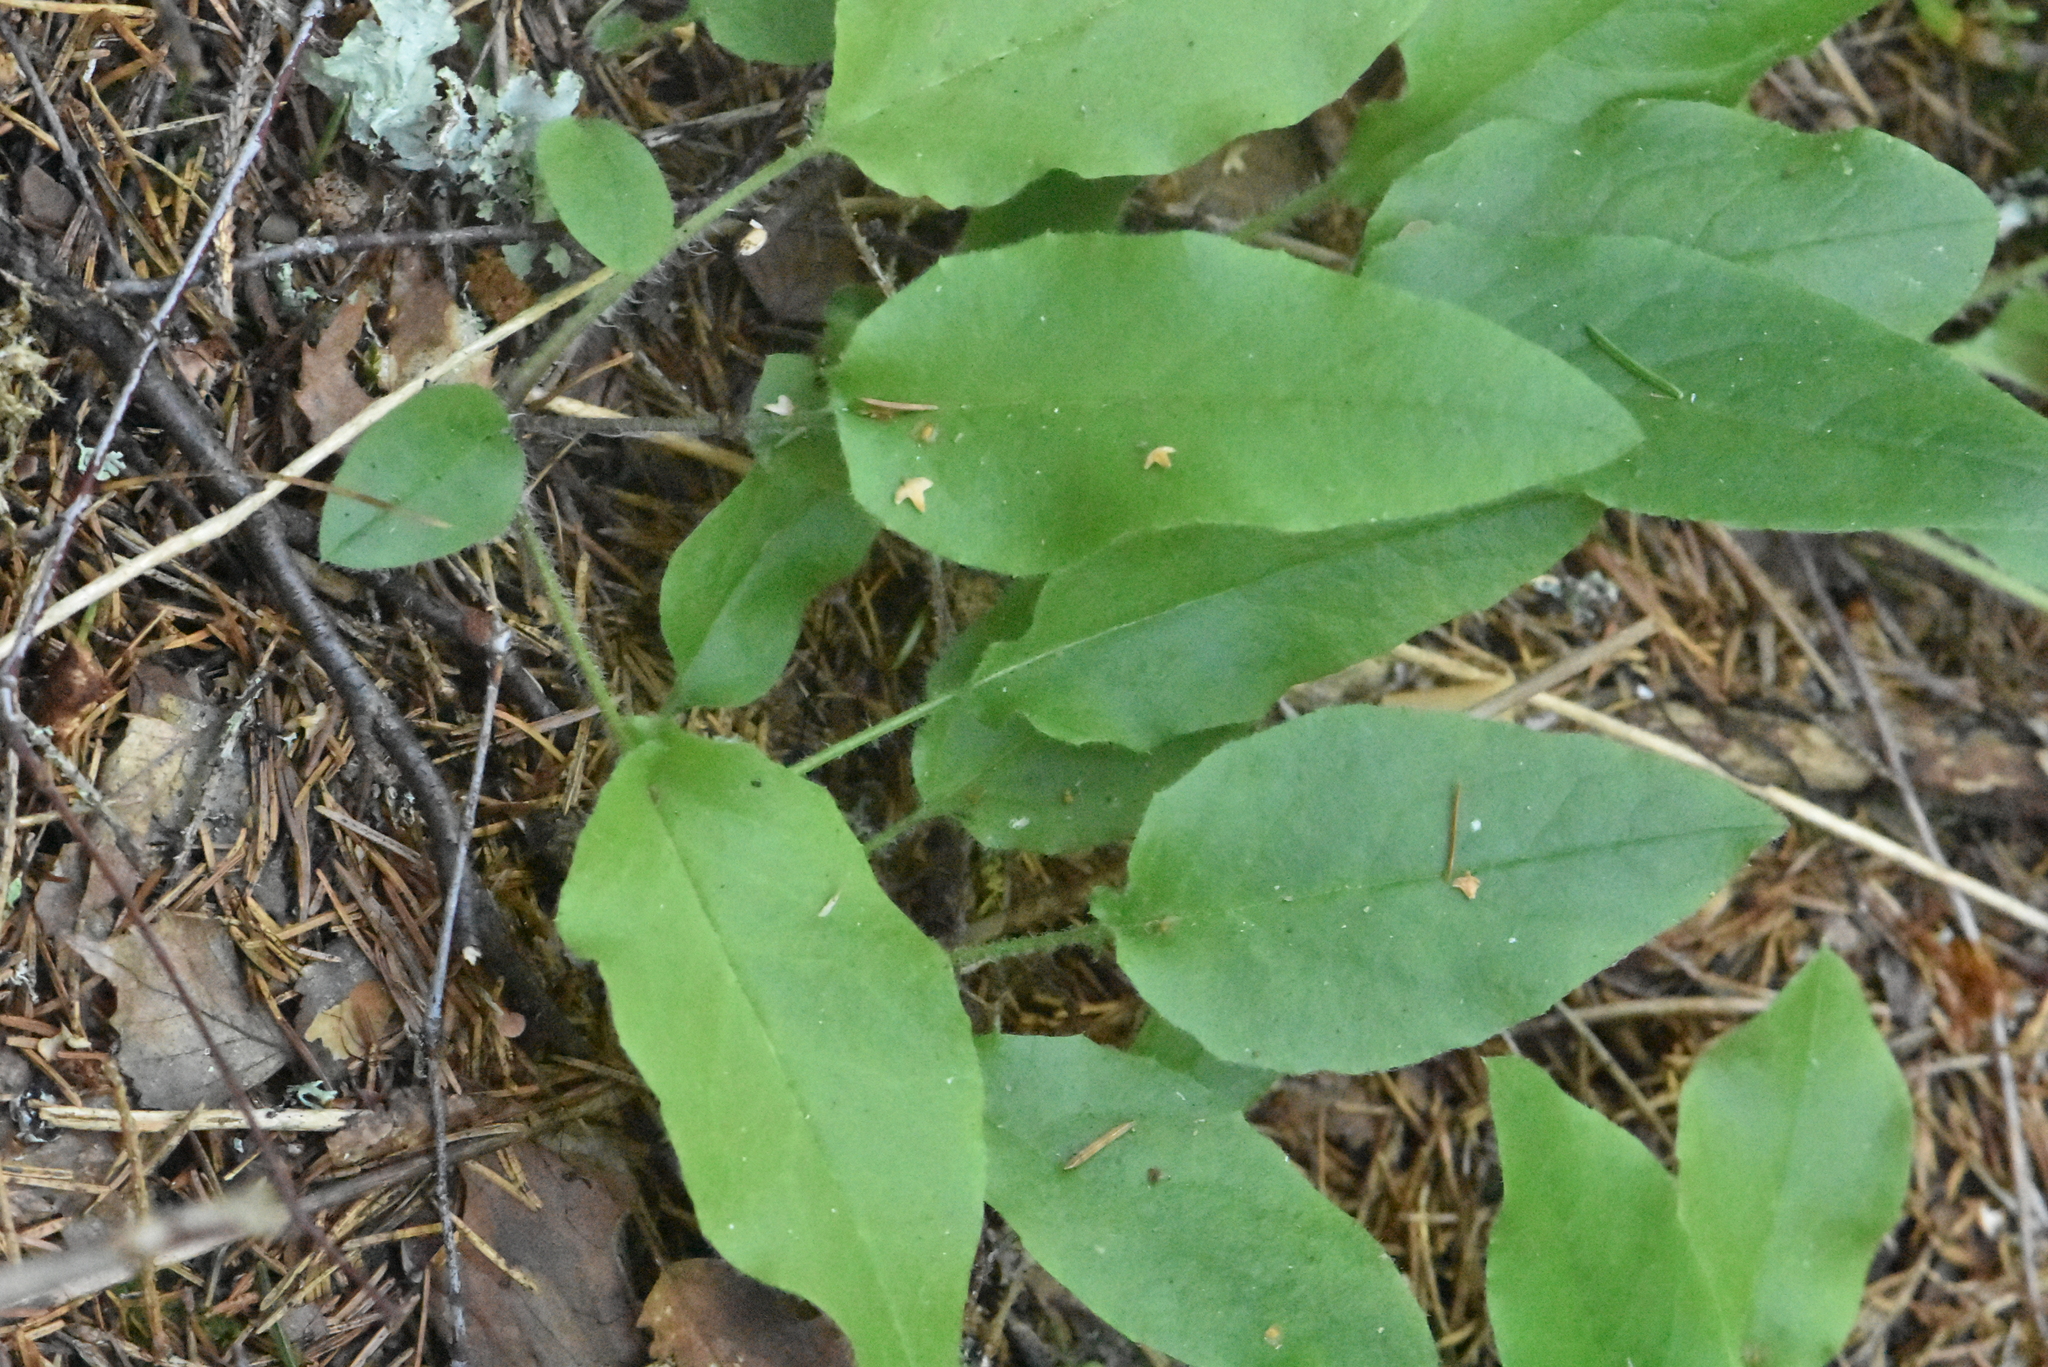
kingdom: Plantae
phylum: Tracheophyta
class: Magnoliopsida
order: Boraginales
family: Boraginaceae
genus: Pulmonaria
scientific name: Pulmonaria obscura
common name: Suffolk lungwort
